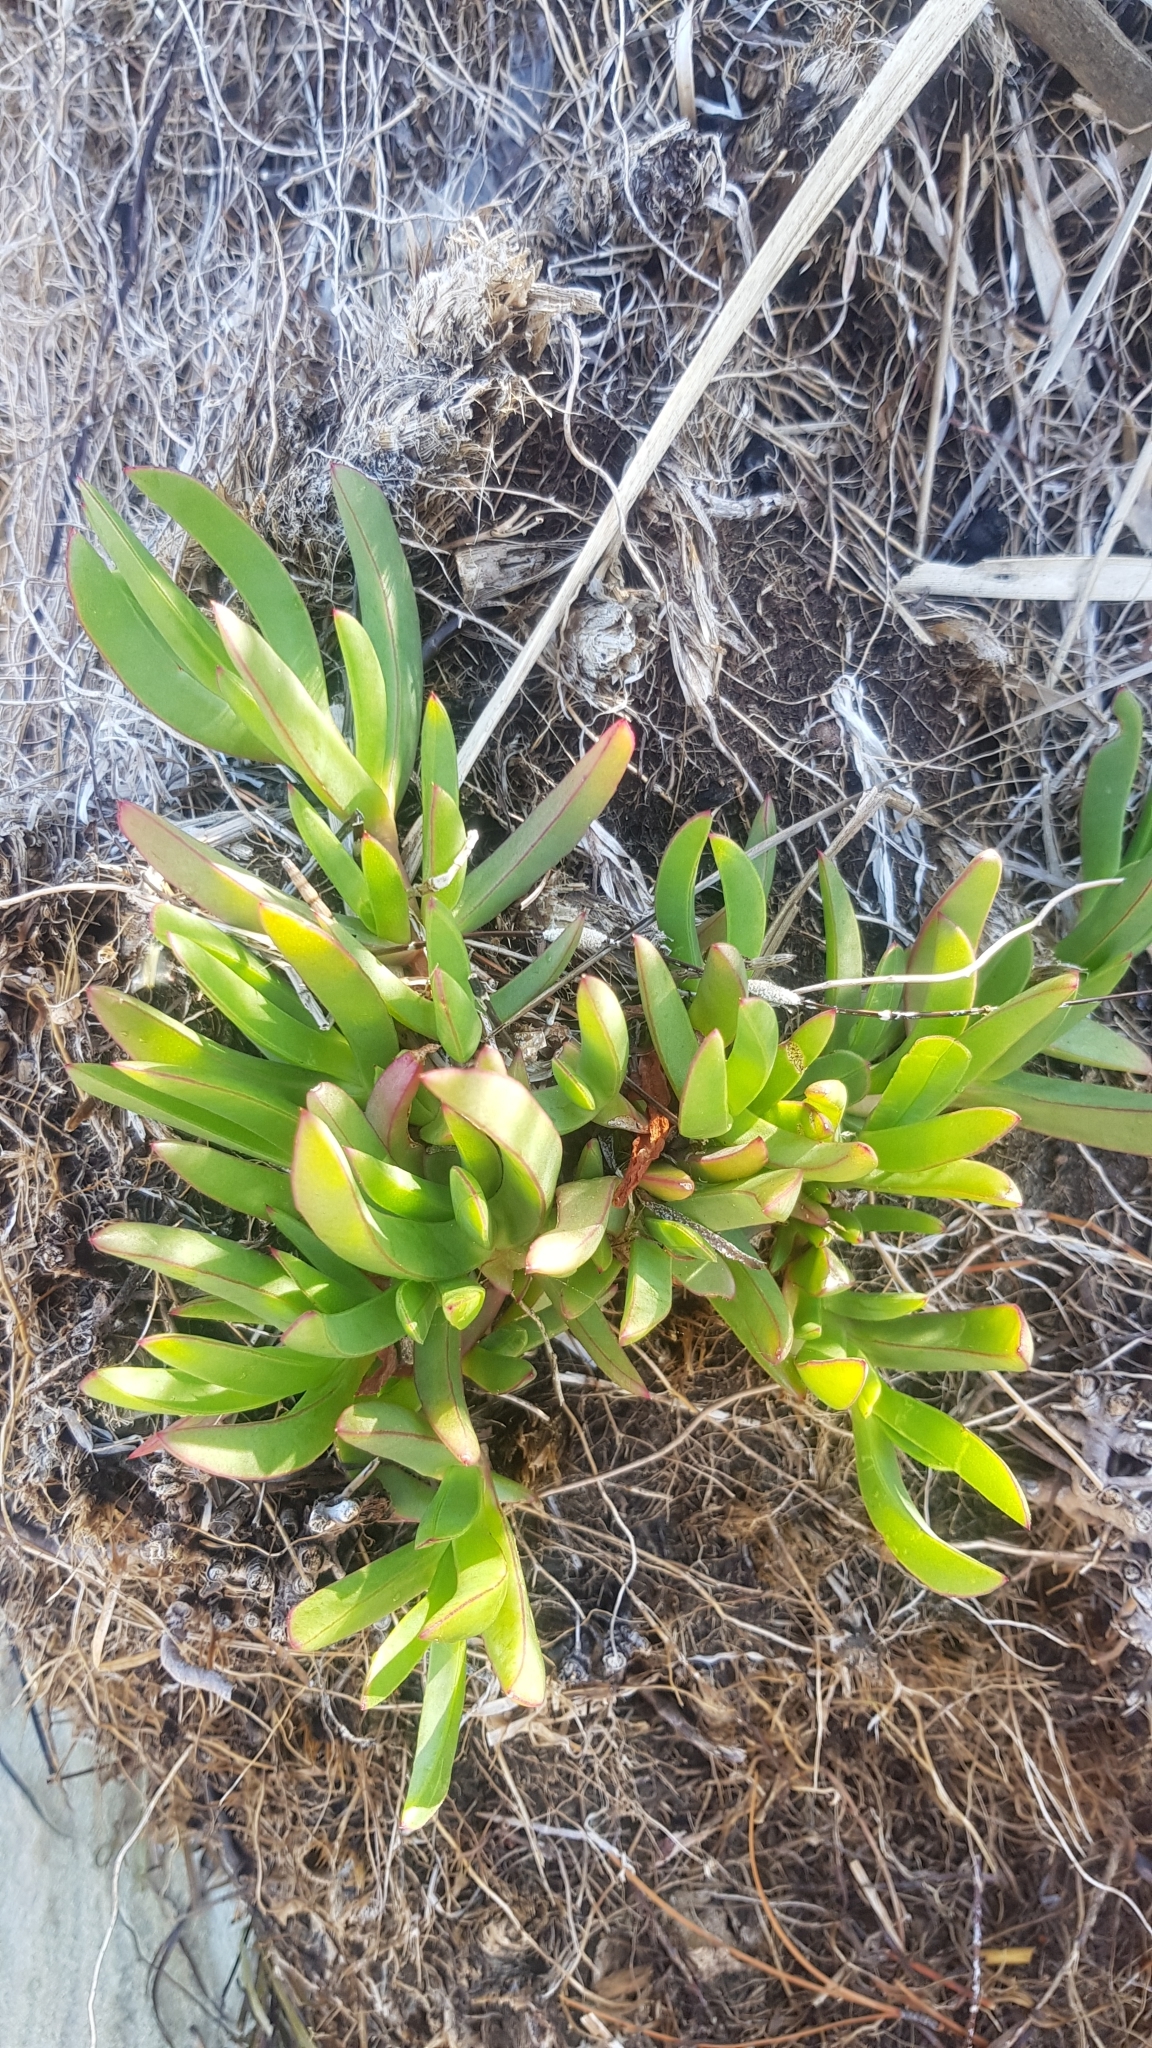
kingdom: Plantae
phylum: Tracheophyta
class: Magnoliopsida
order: Caryophyllales
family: Aizoaceae
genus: Carpobrotus
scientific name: Carpobrotus rossii
